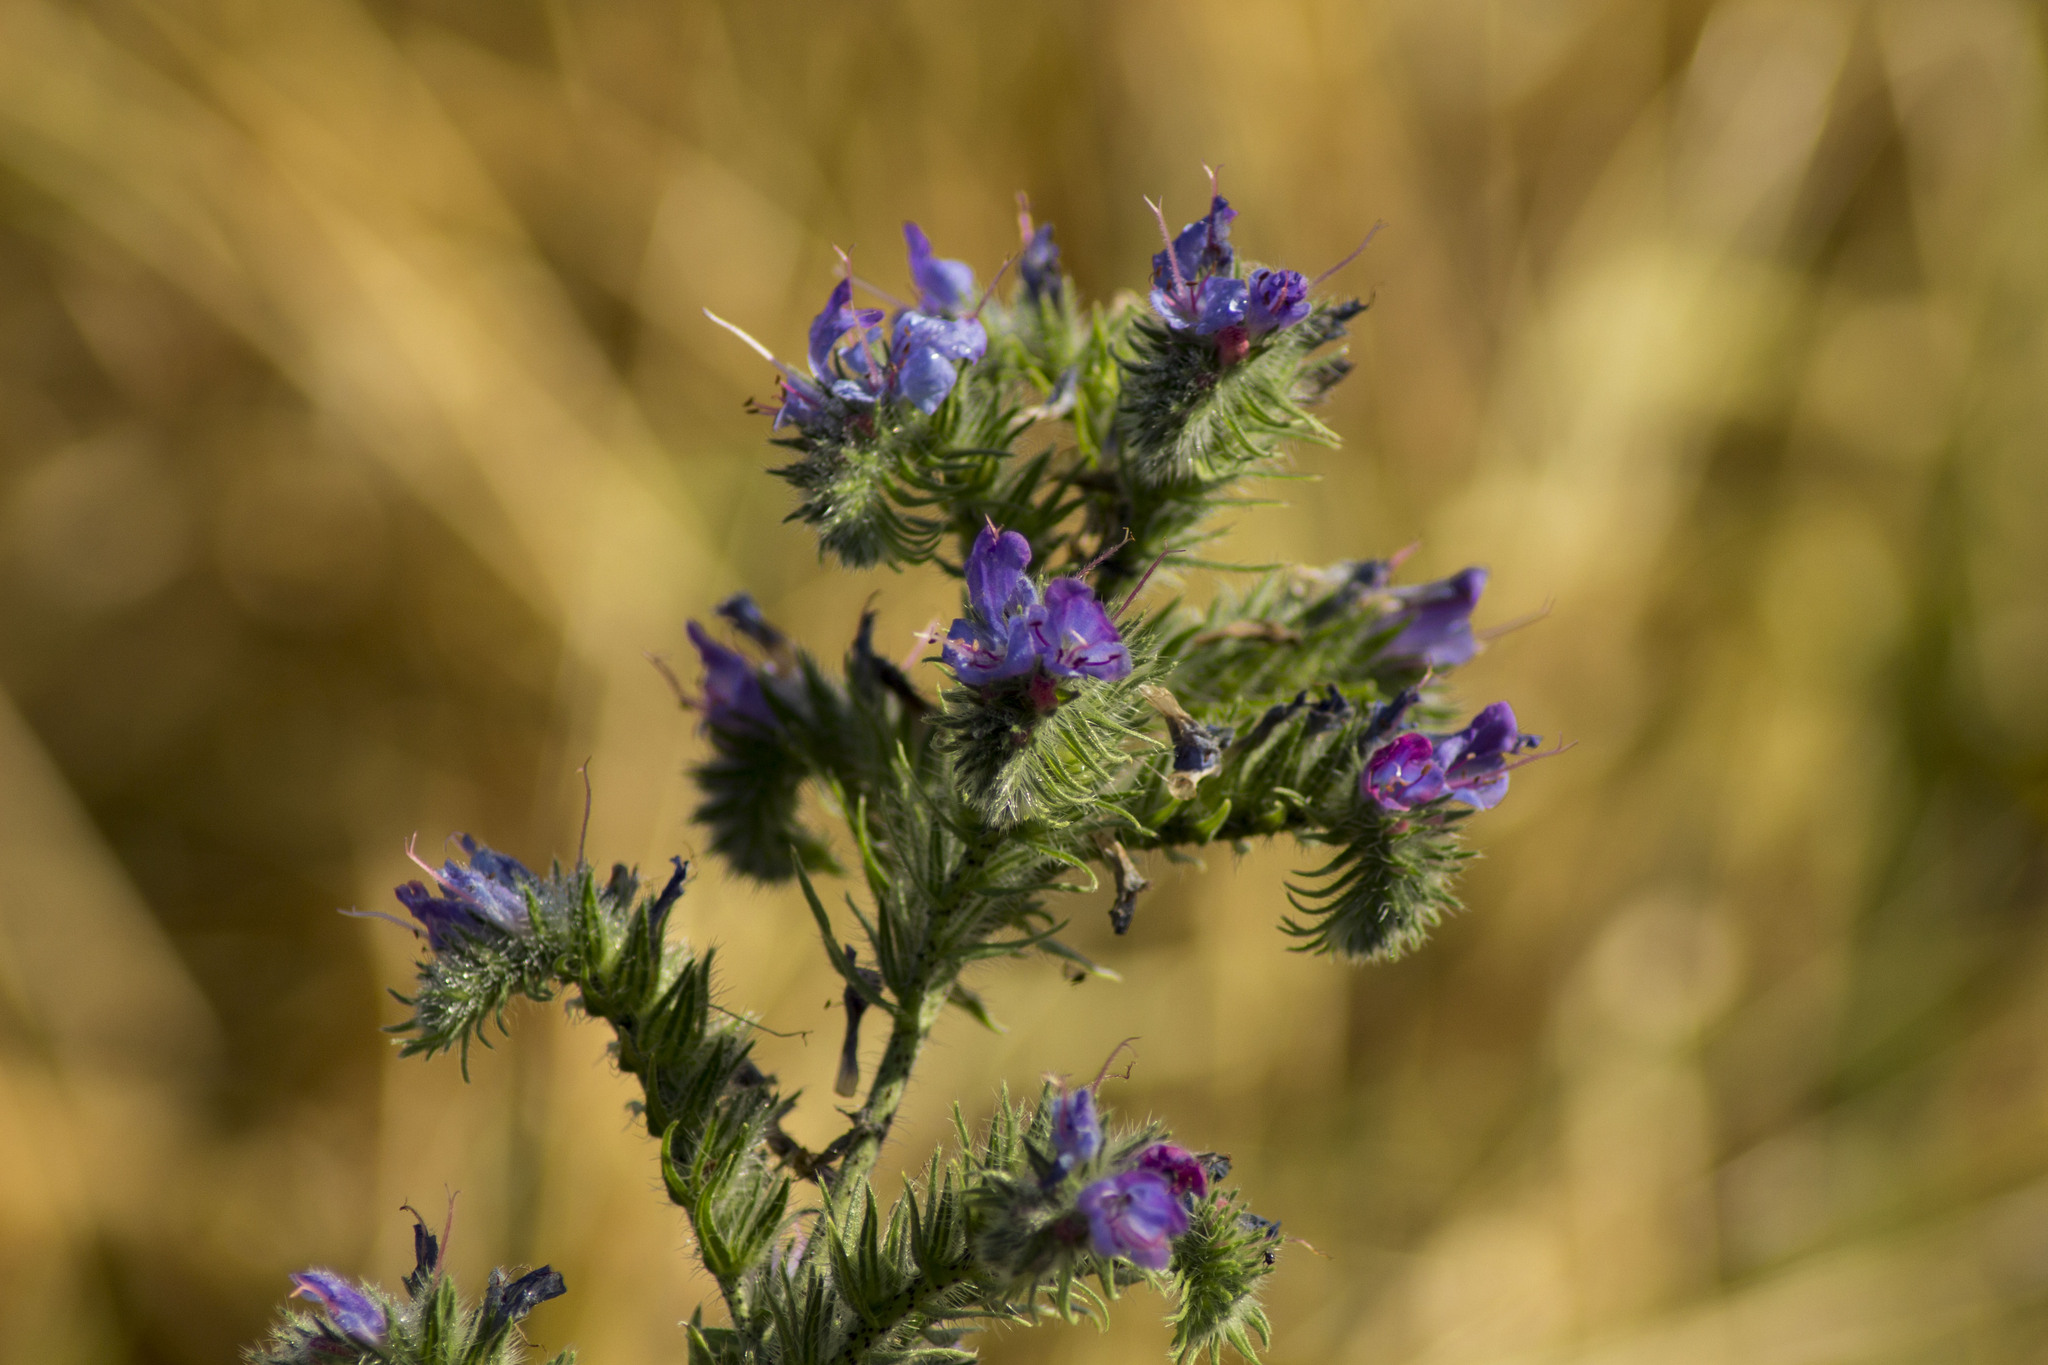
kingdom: Plantae
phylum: Tracheophyta
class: Magnoliopsida
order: Boraginales
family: Boraginaceae
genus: Echium
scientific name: Echium vulgare
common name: Common viper's bugloss
